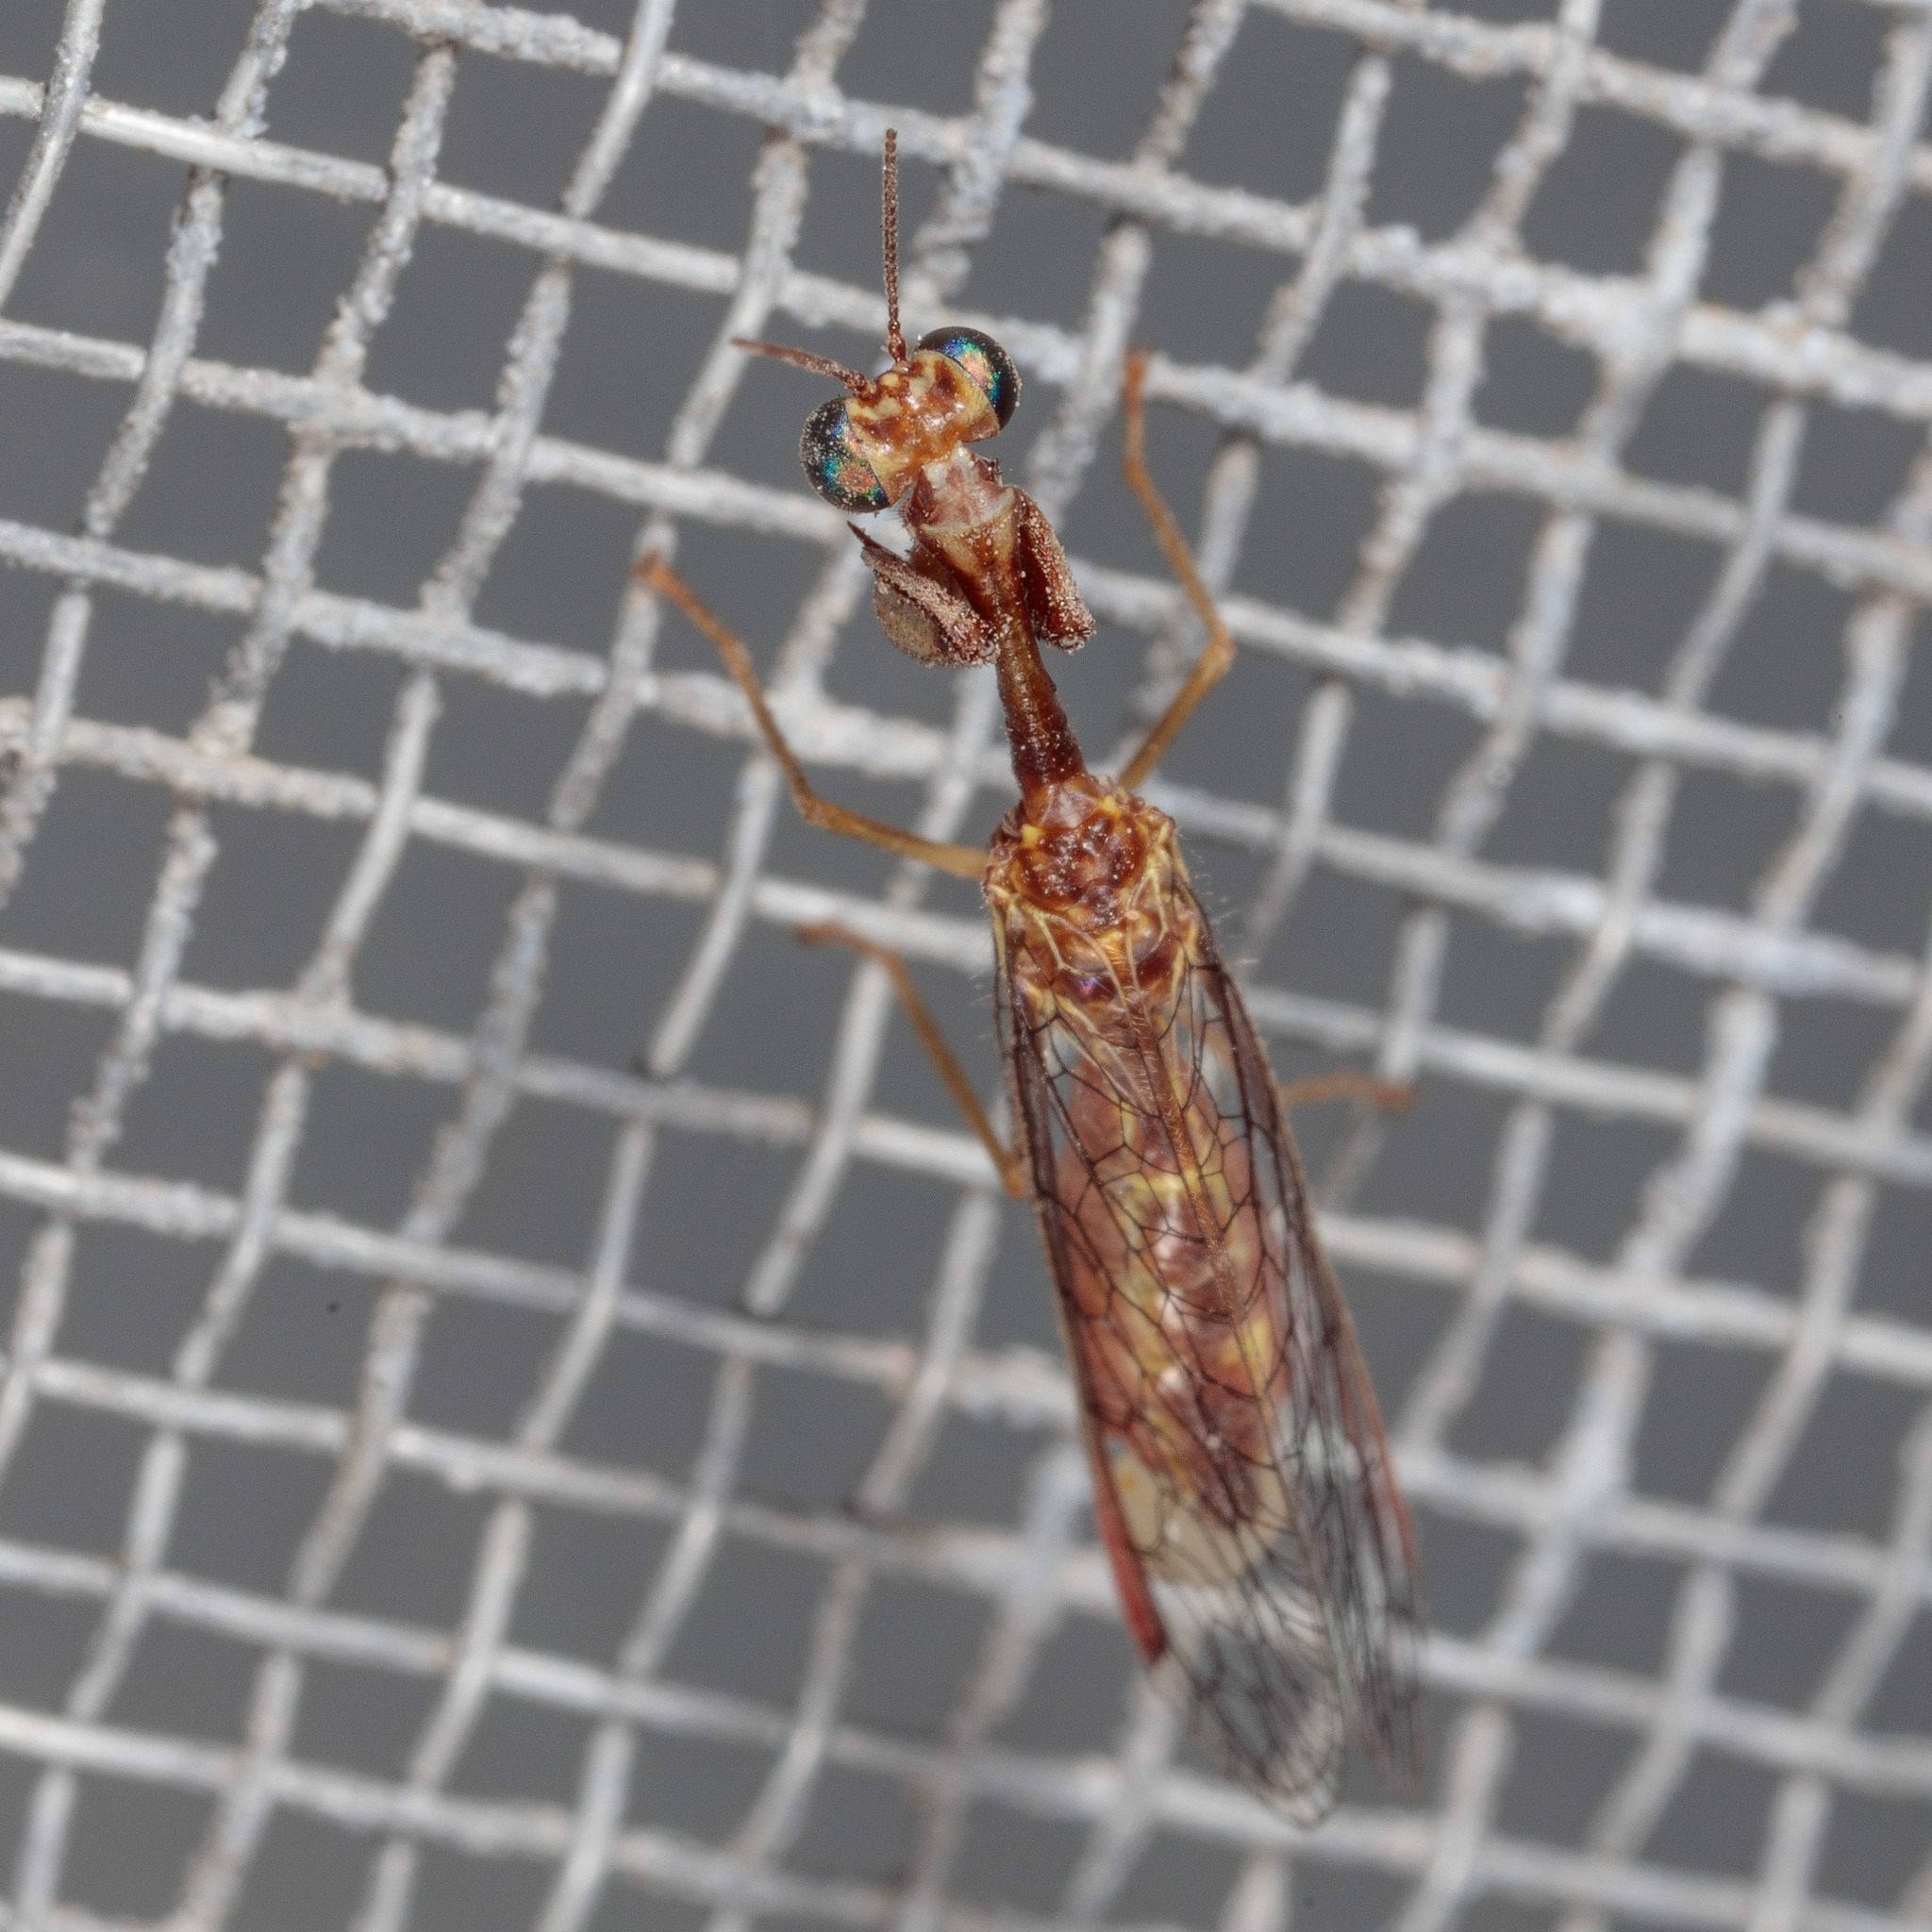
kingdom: Animalia
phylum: Arthropoda
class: Insecta
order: Neuroptera
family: Mantispidae
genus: Leptomantispa
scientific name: Leptomantispa pulchella
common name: Stevens's mantidfly
